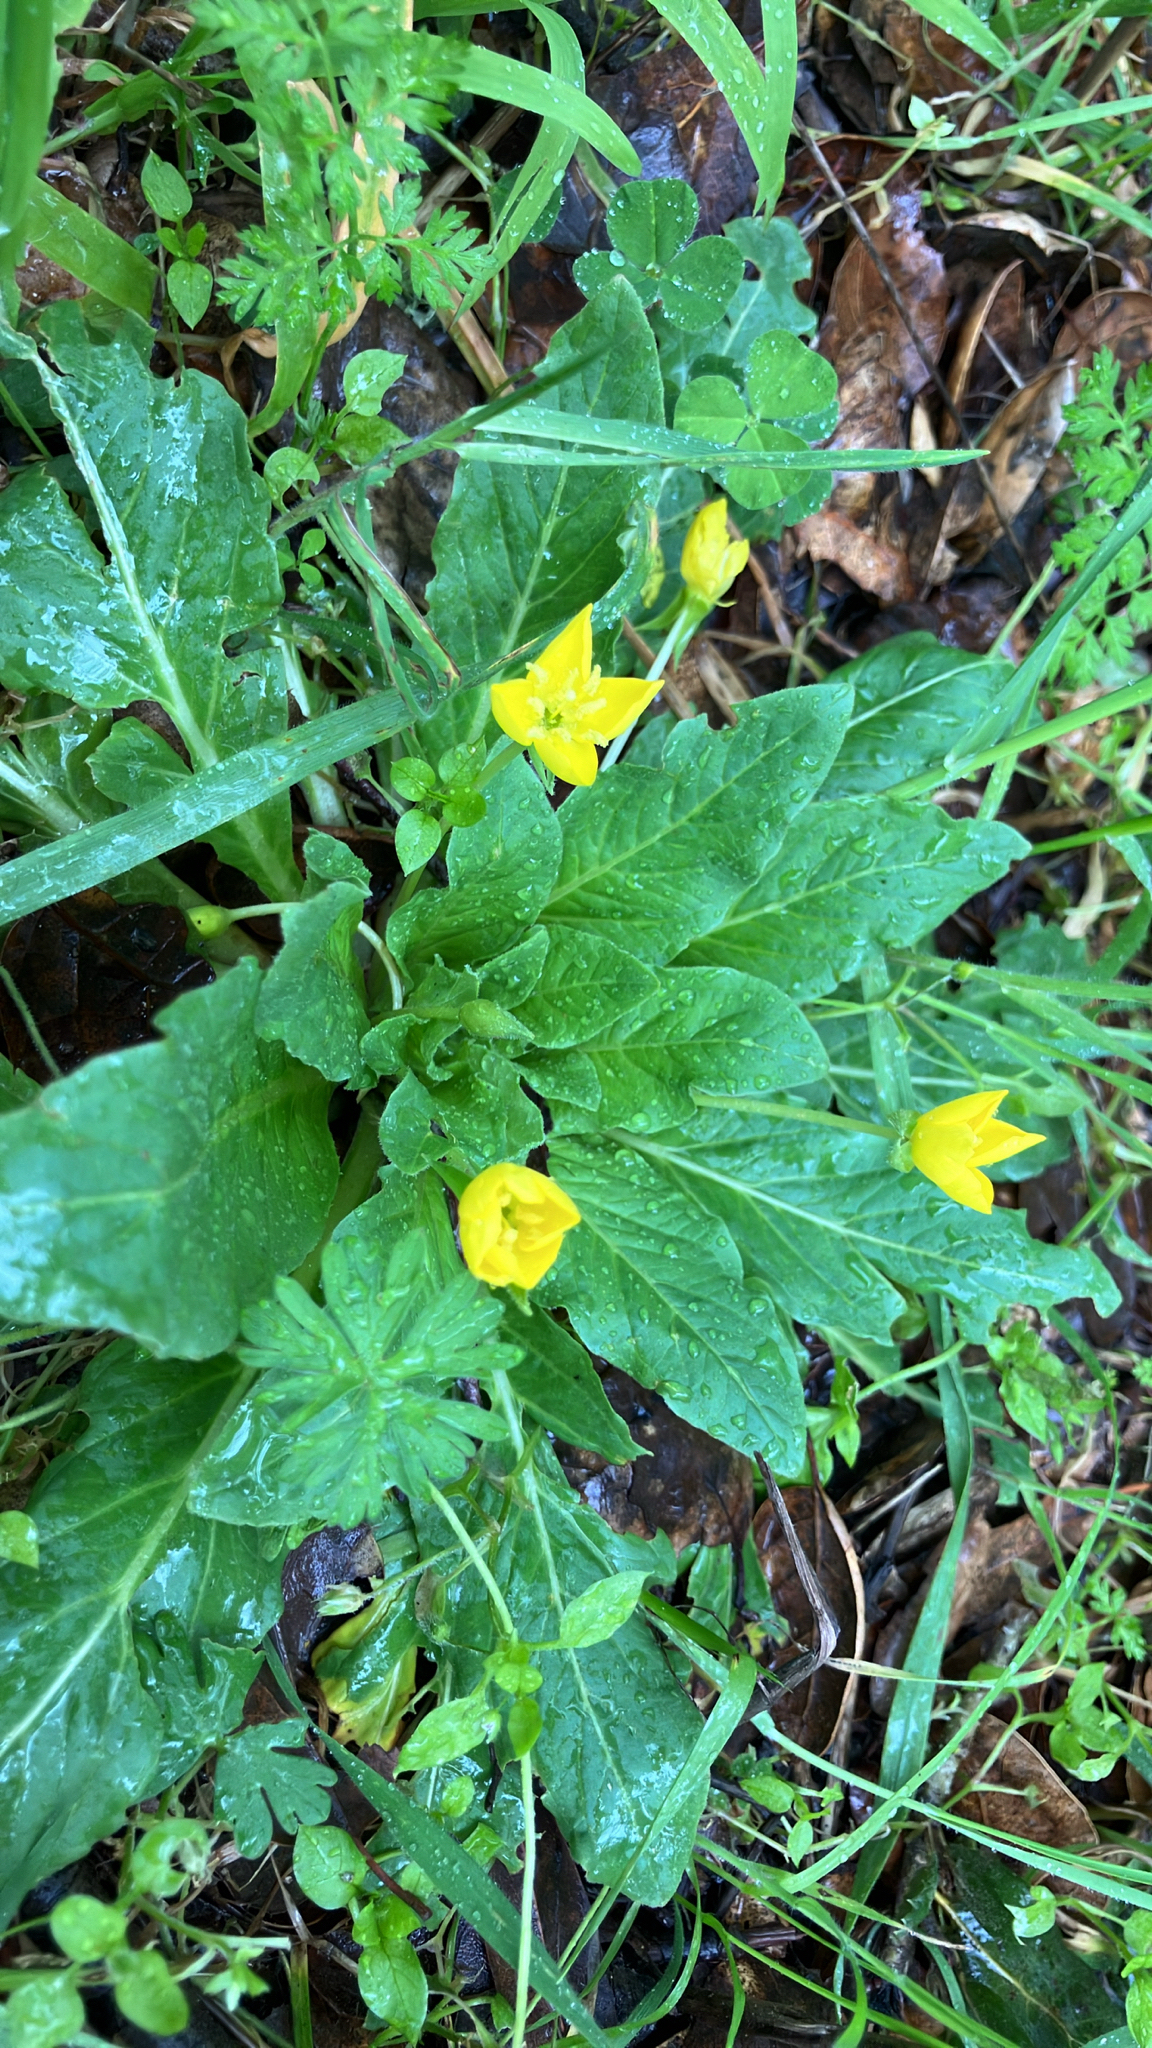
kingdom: Plantae
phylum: Tracheophyta
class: Magnoliopsida
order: Myrtales
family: Onagraceae
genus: Taraxia
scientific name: Taraxia ovata
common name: Goldeneggs
